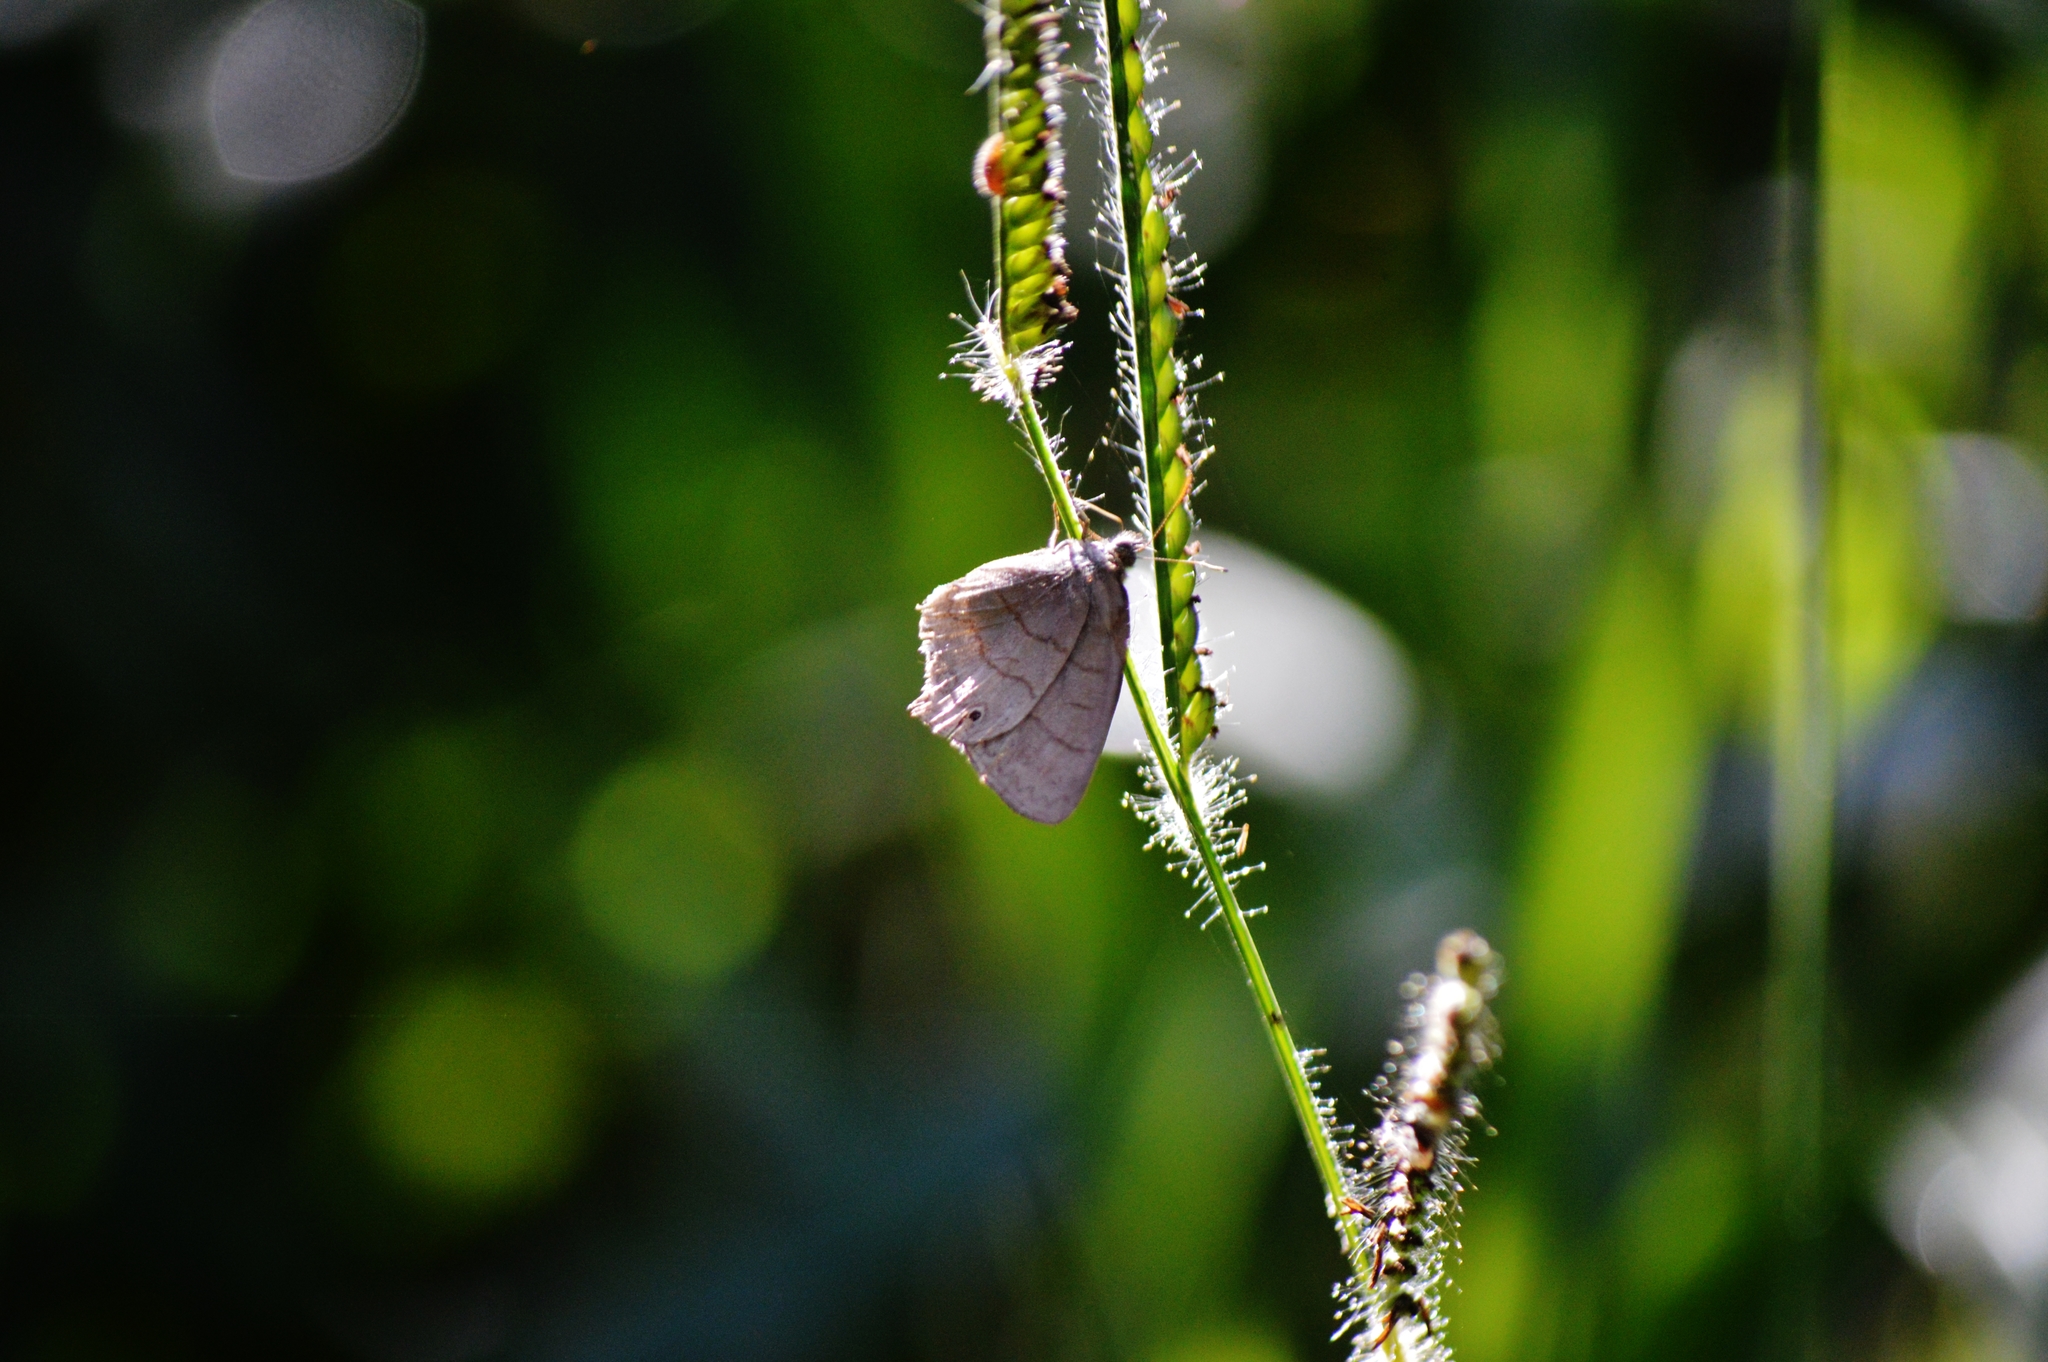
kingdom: Animalia
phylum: Arthropoda
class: Insecta
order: Lepidoptera
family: Nymphalidae
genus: Euptychiina
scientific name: Euptychiina
